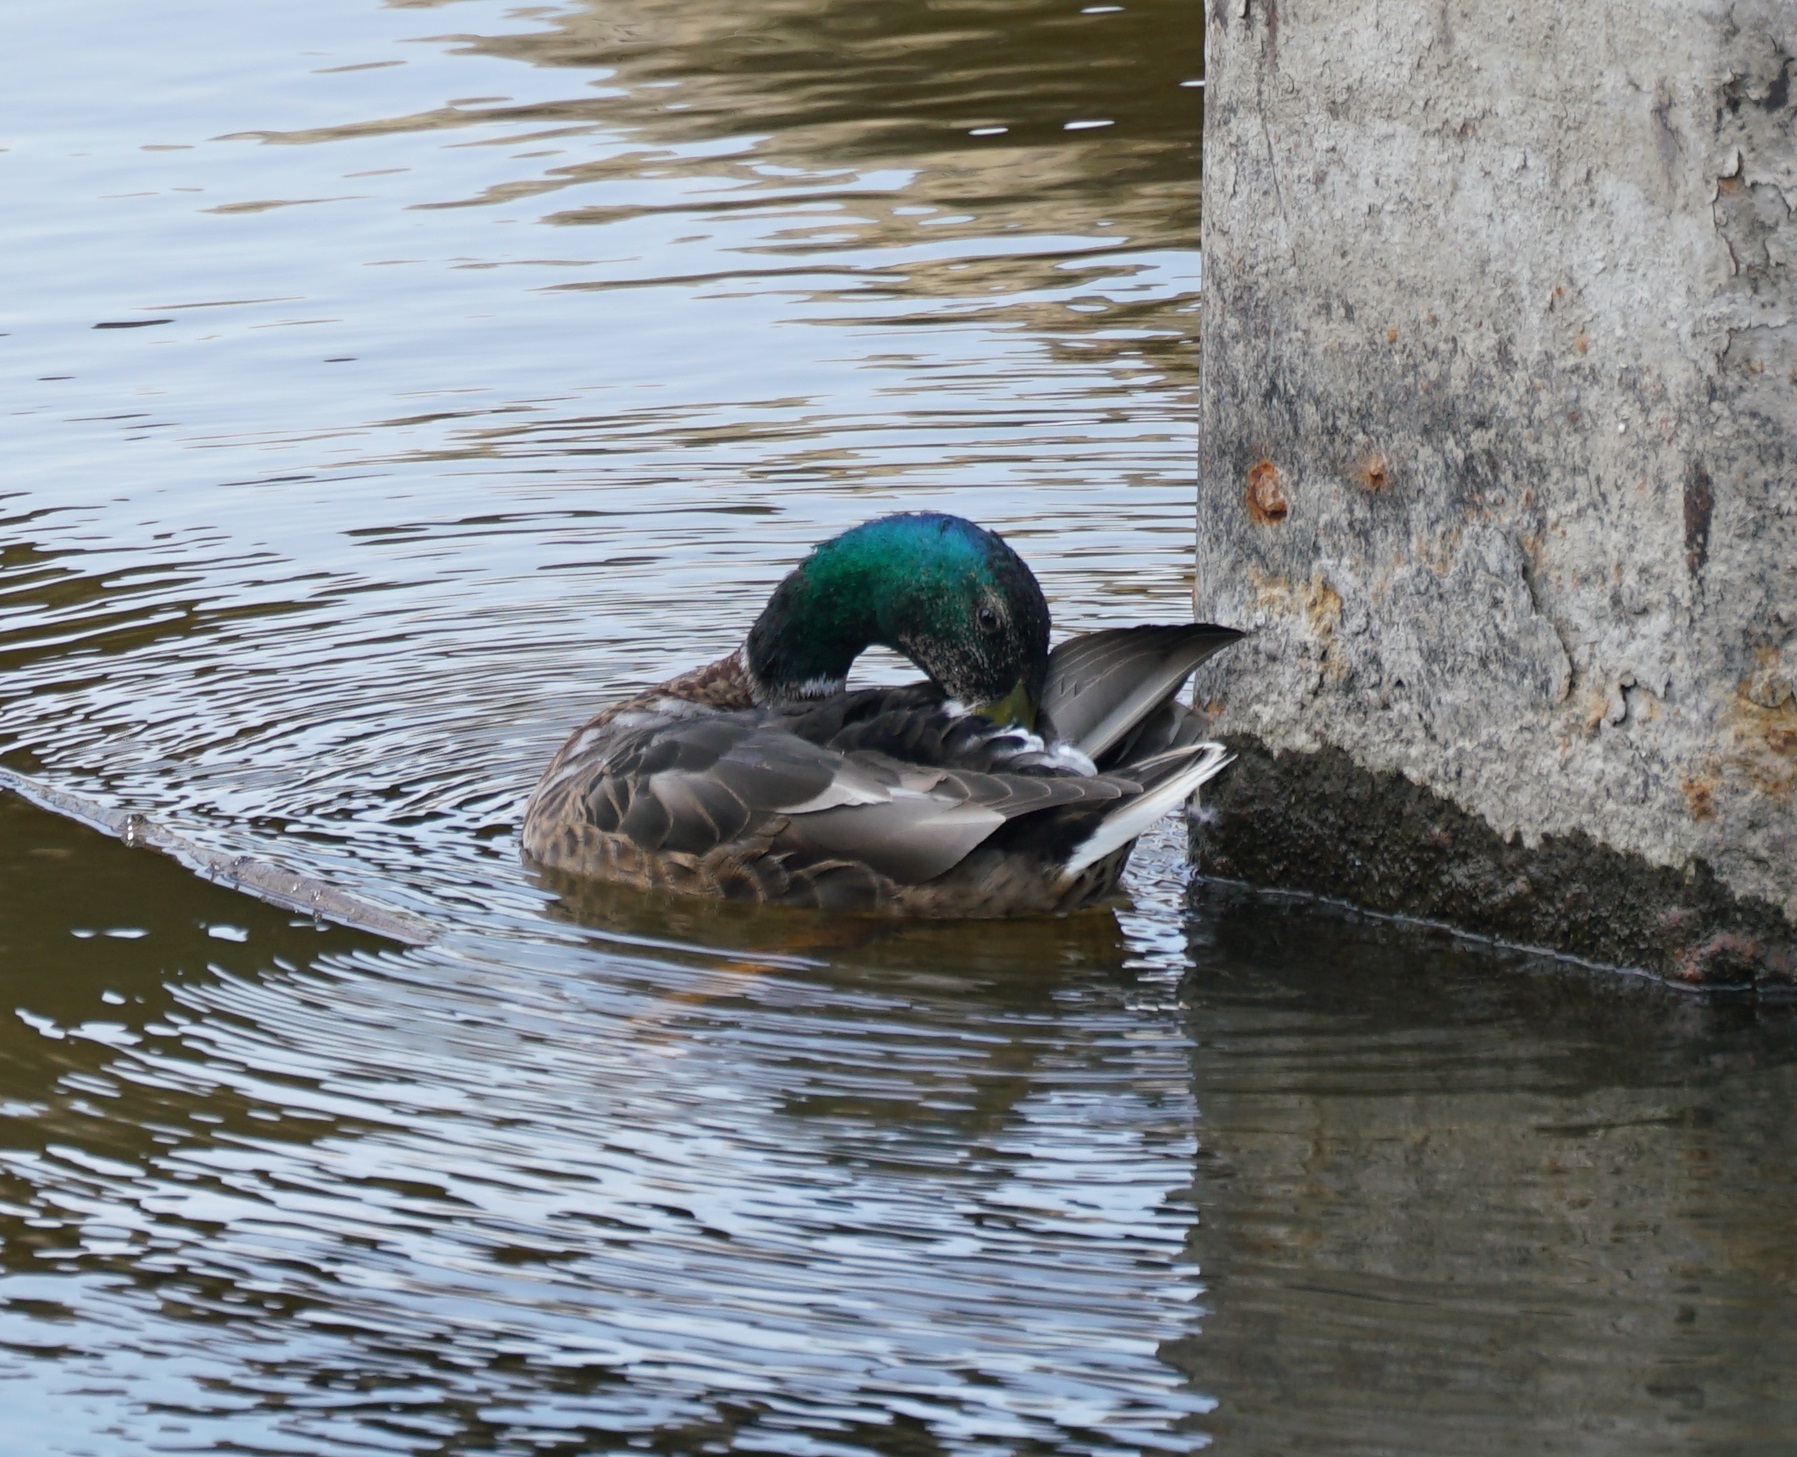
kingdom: Animalia
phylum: Chordata
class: Aves
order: Anseriformes
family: Anatidae
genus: Anas
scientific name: Anas platyrhynchos
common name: Mallard
